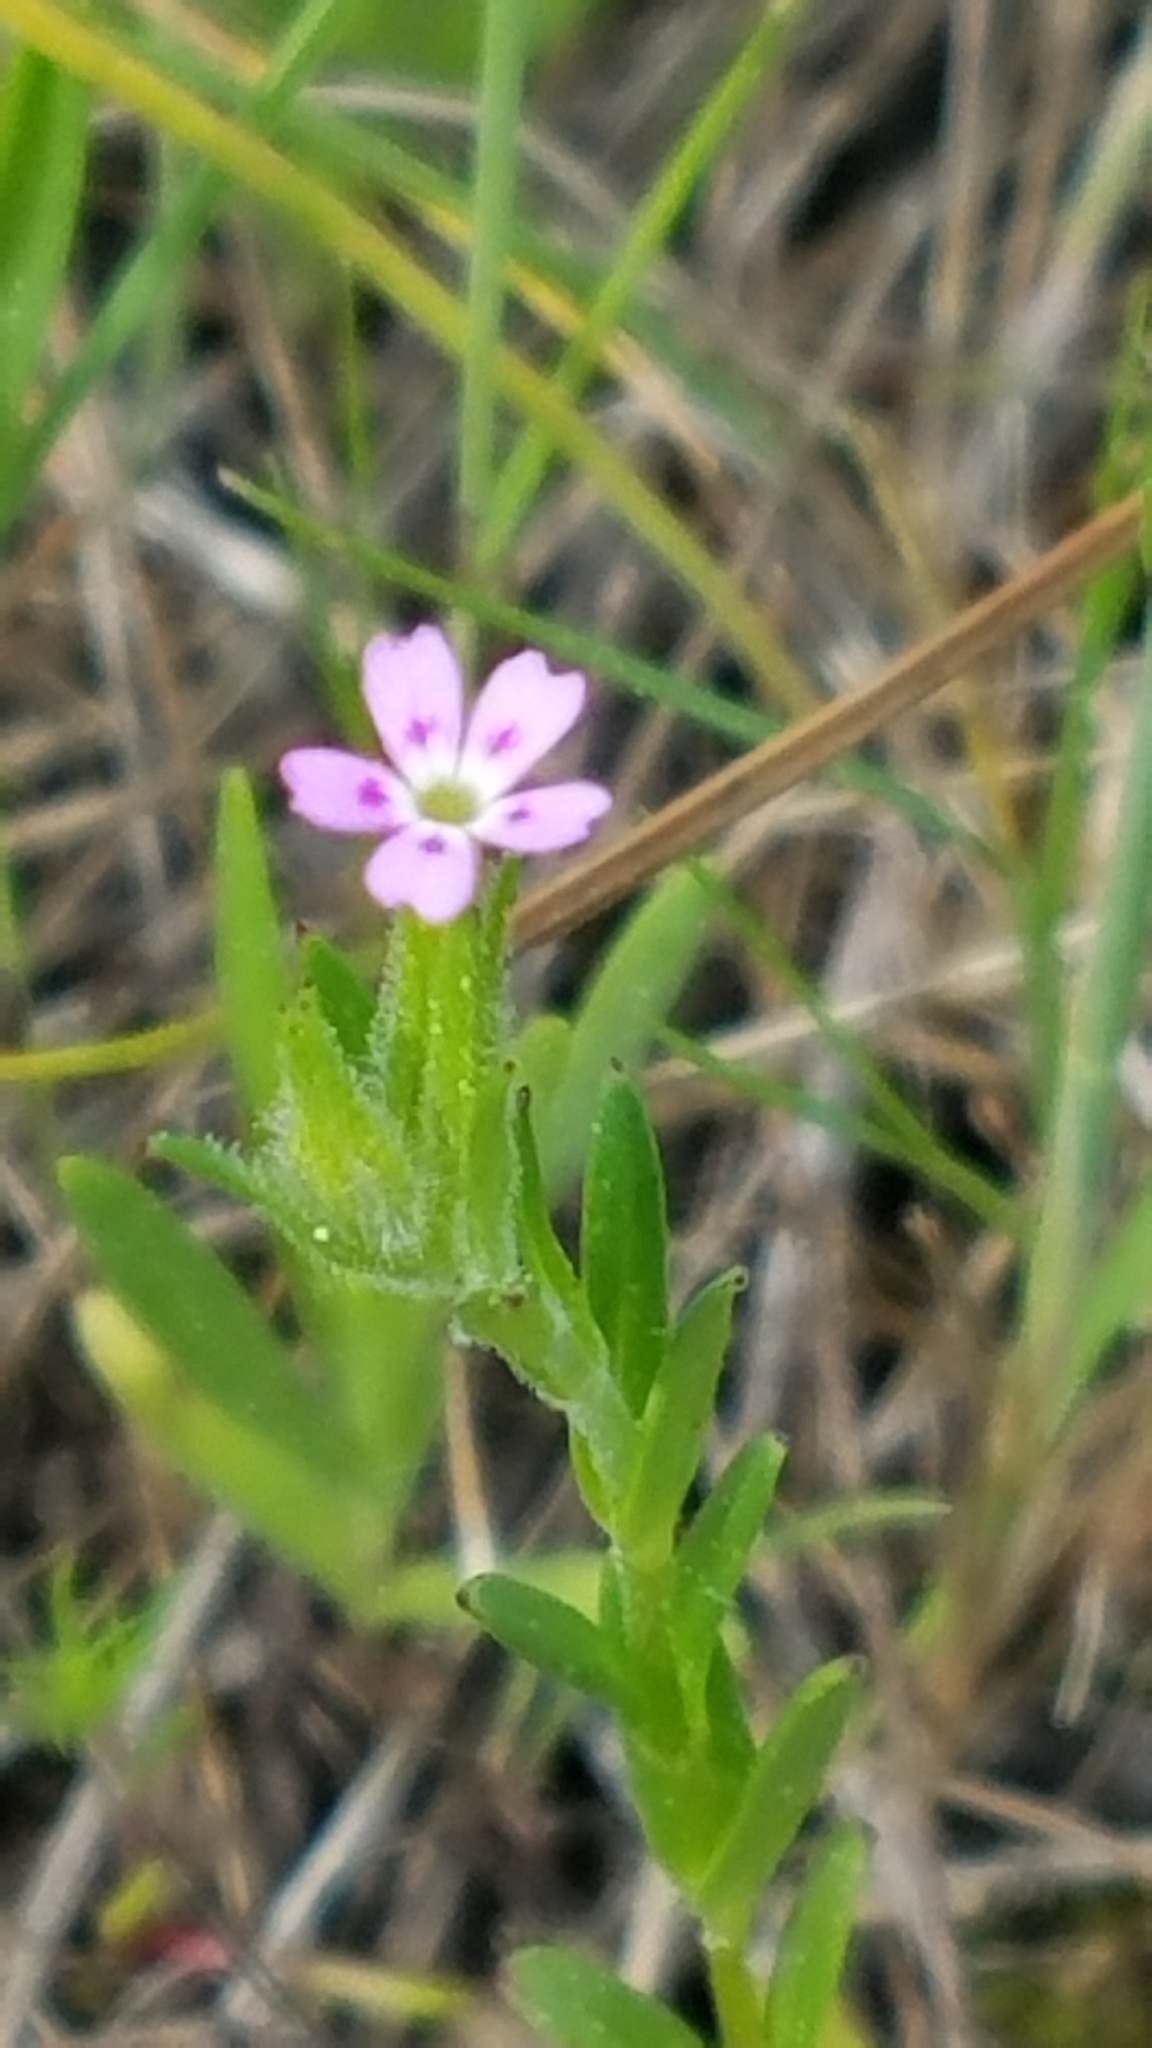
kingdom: Plantae
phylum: Tracheophyta
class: Magnoliopsida
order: Ericales
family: Polemoniaceae
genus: Phlox
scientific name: Phlox gracilis
